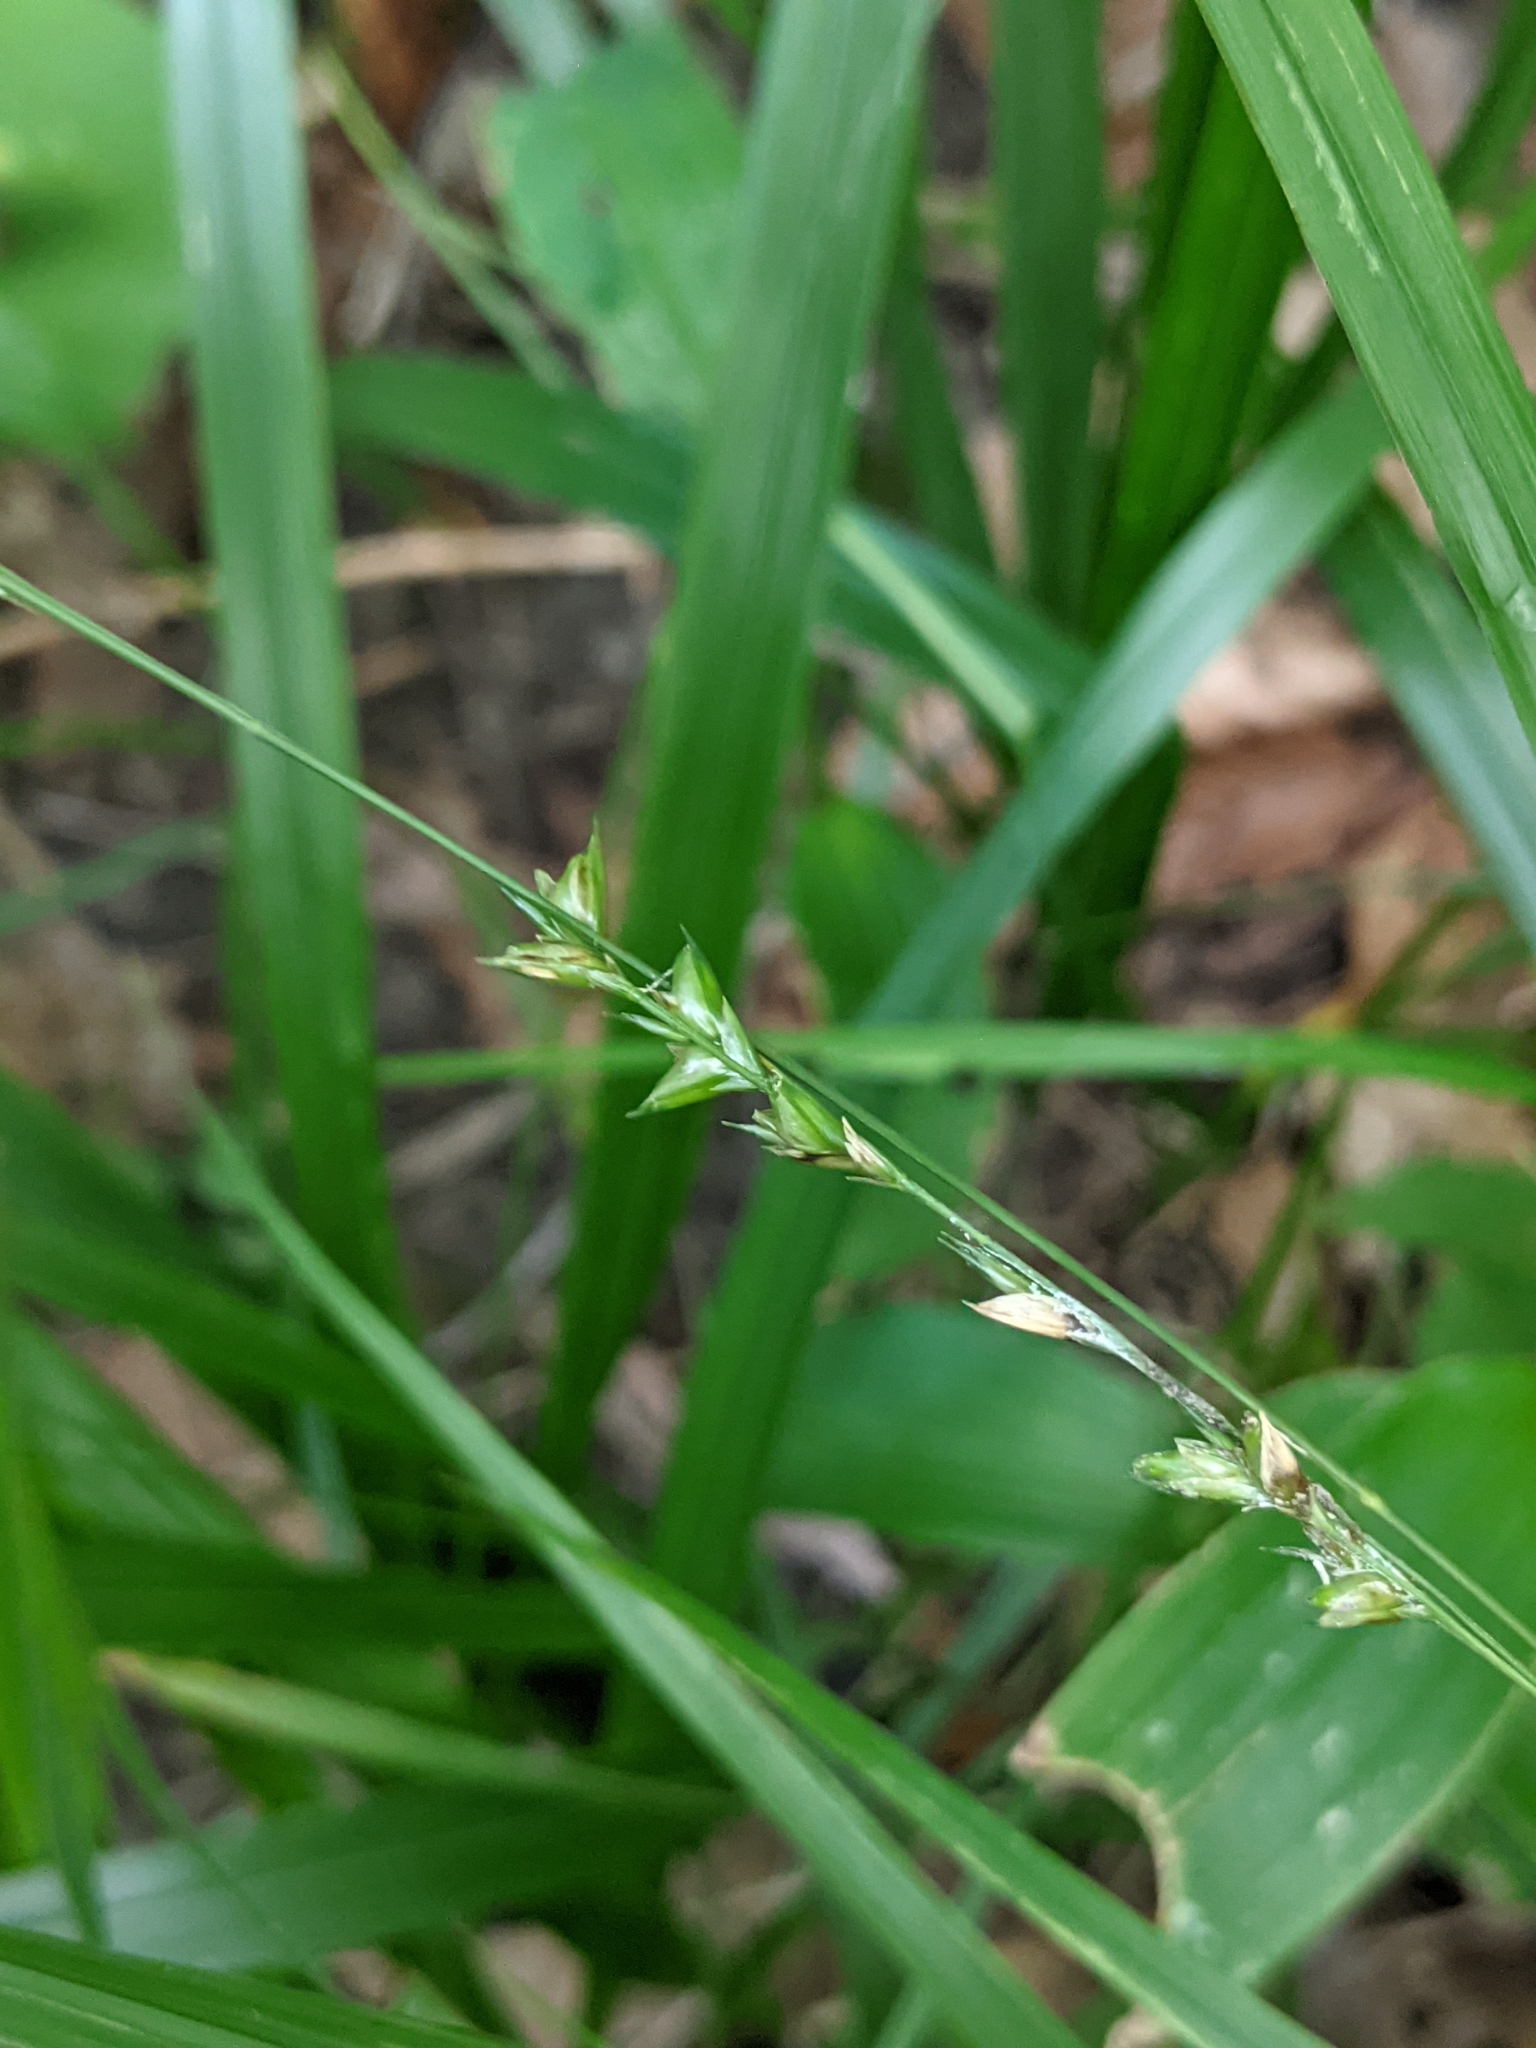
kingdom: Plantae
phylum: Tracheophyta
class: Liliopsida
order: Poales
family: Poaceae
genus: Diarrhena
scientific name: Diarrhena obovata
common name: Beakgrass
